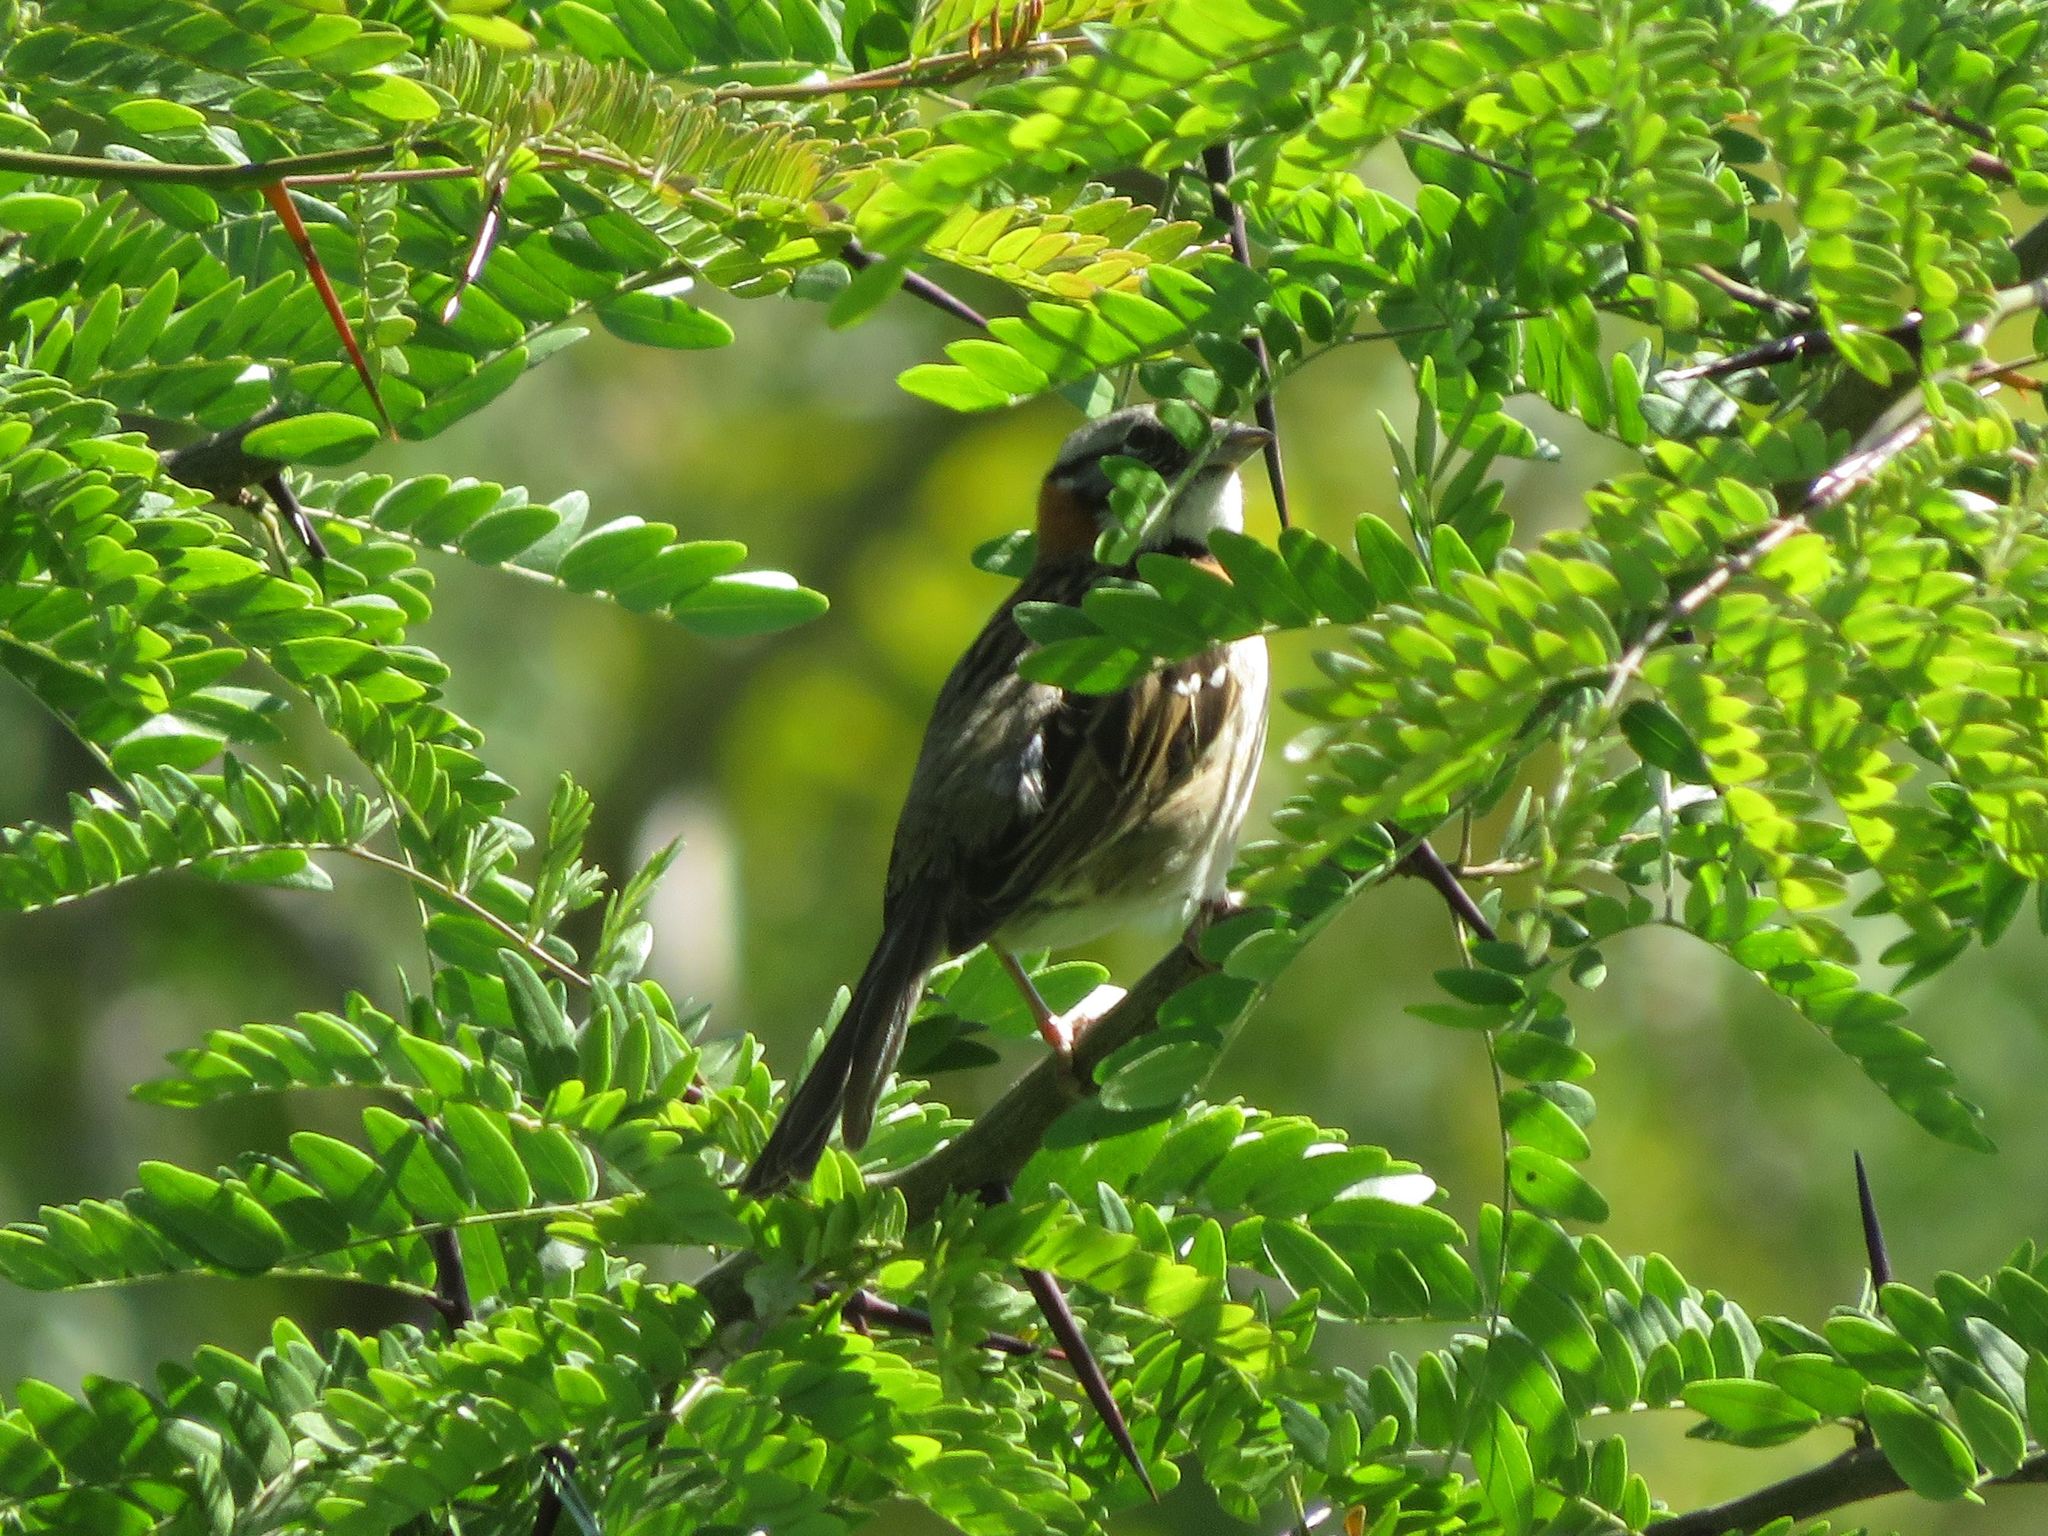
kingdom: Animalia
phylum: Chordata
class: Aves
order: Passeriformes
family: Passerellidae
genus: Zonotrichia
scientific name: Zonotrichia capensis
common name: Rufous-collared sparrow
